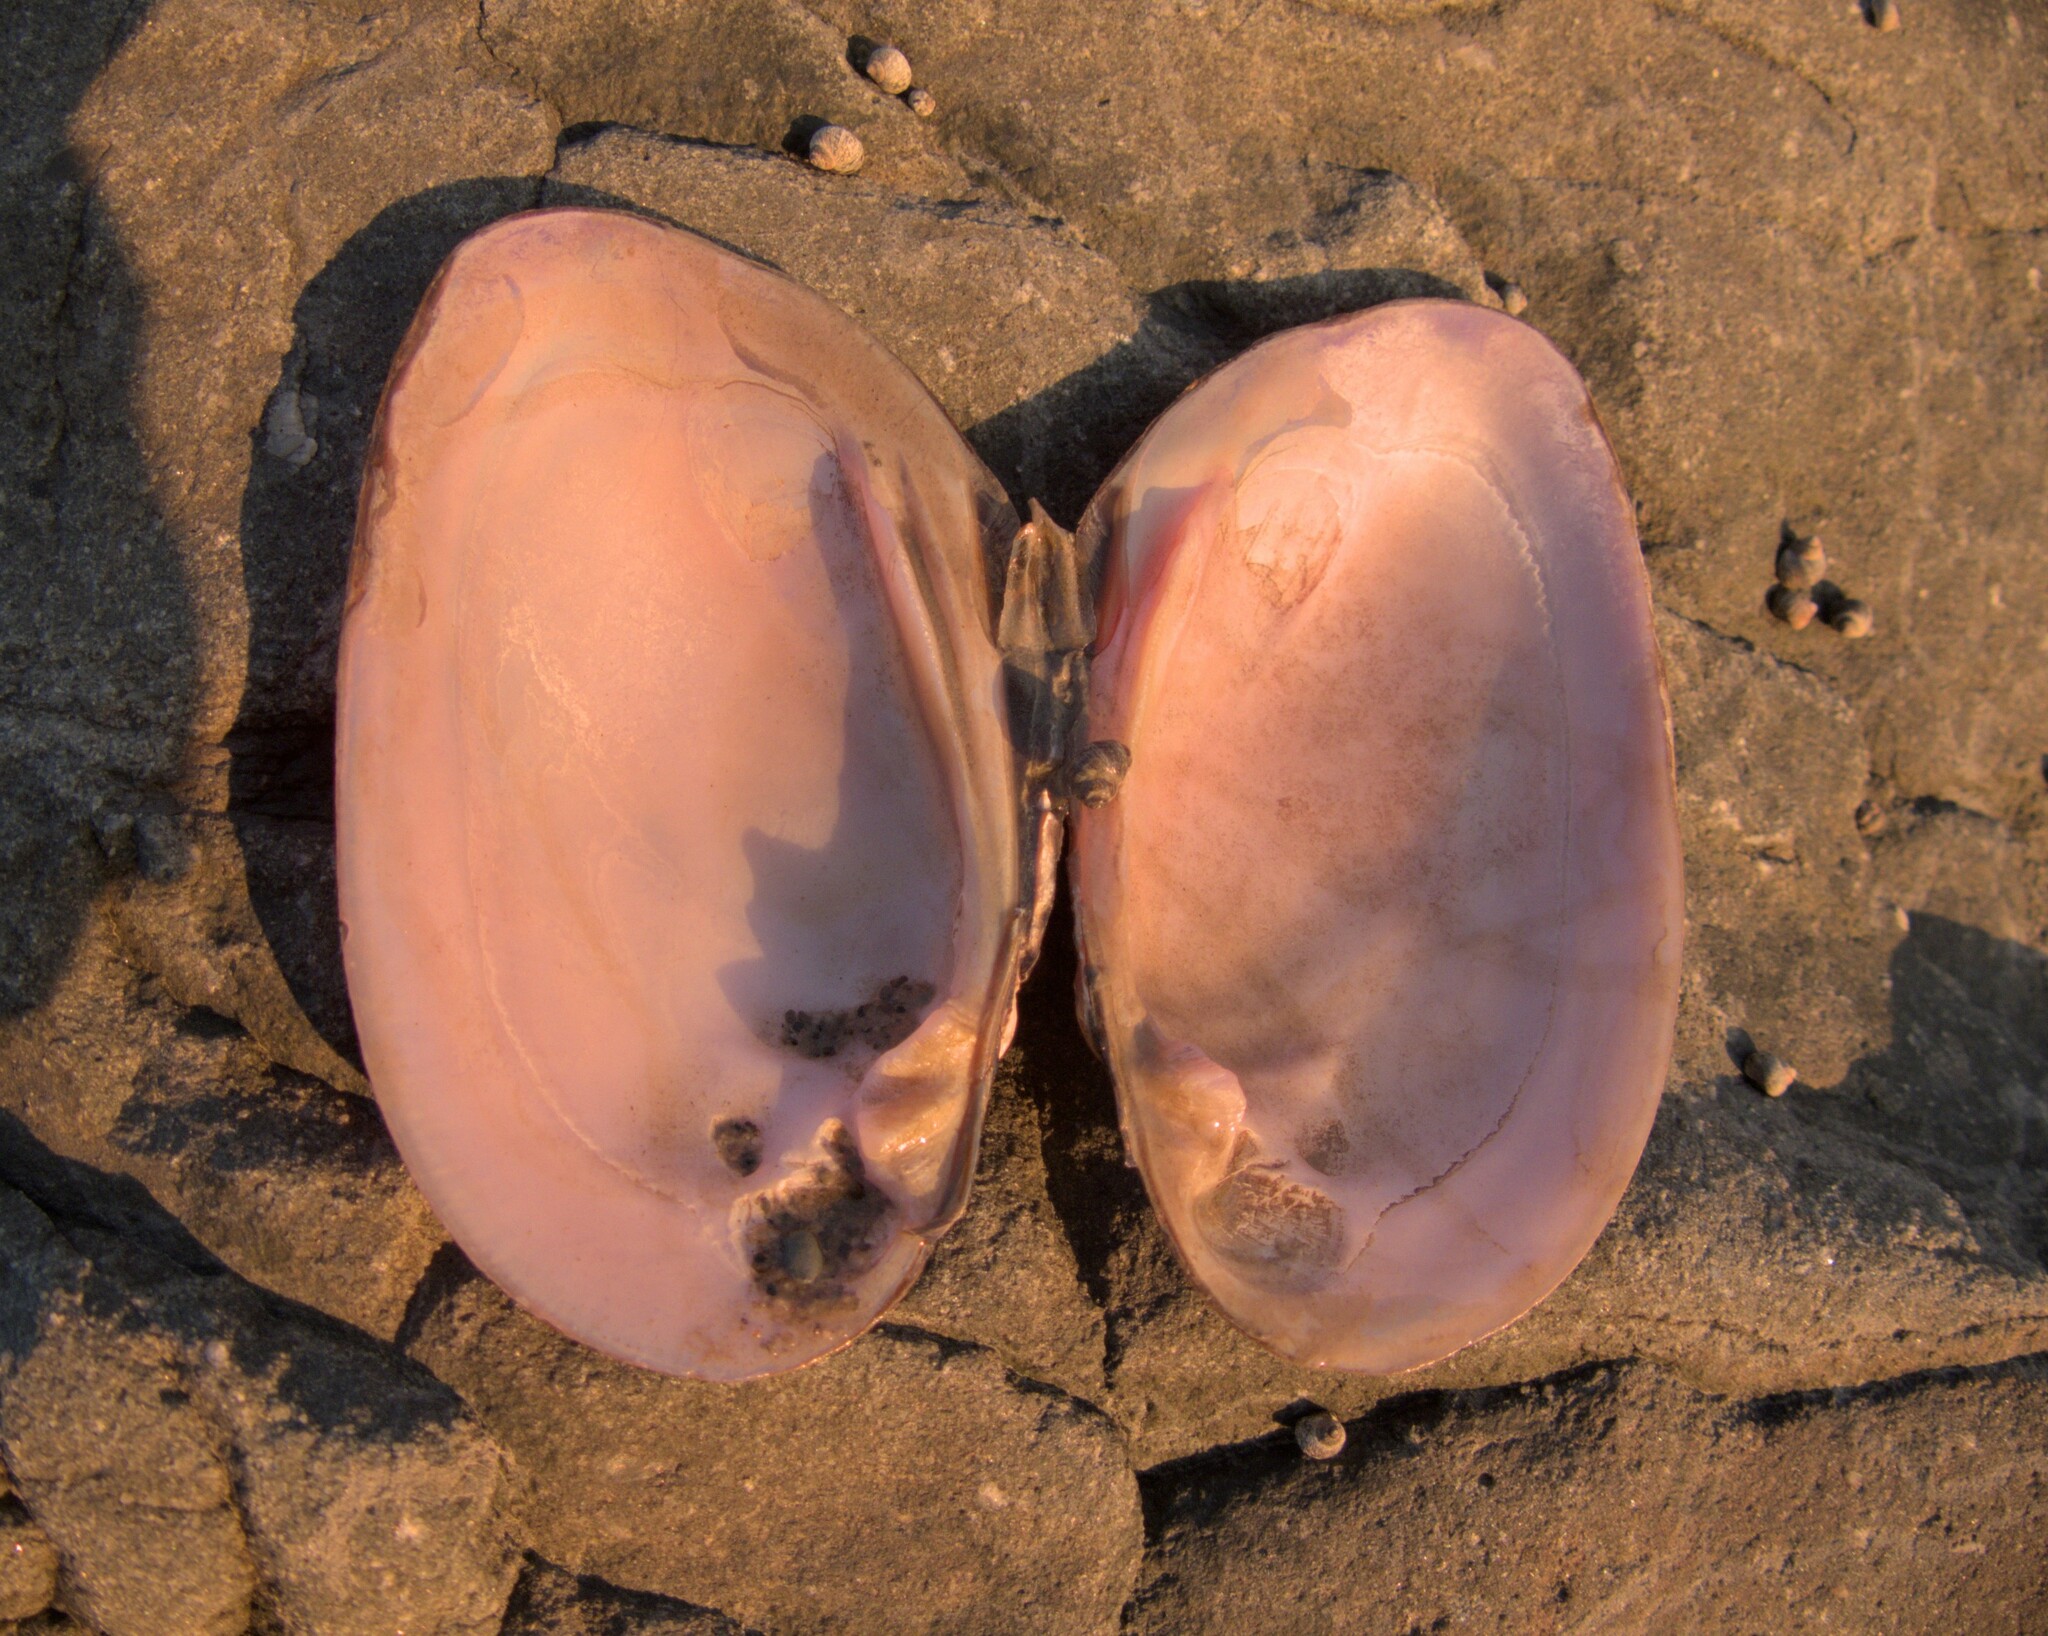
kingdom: Animalia
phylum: Mollusca
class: Bivalvia
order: Unionida
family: Unionidae
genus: Elliptio
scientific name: Elliptio complanata
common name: Eastern elliptio
